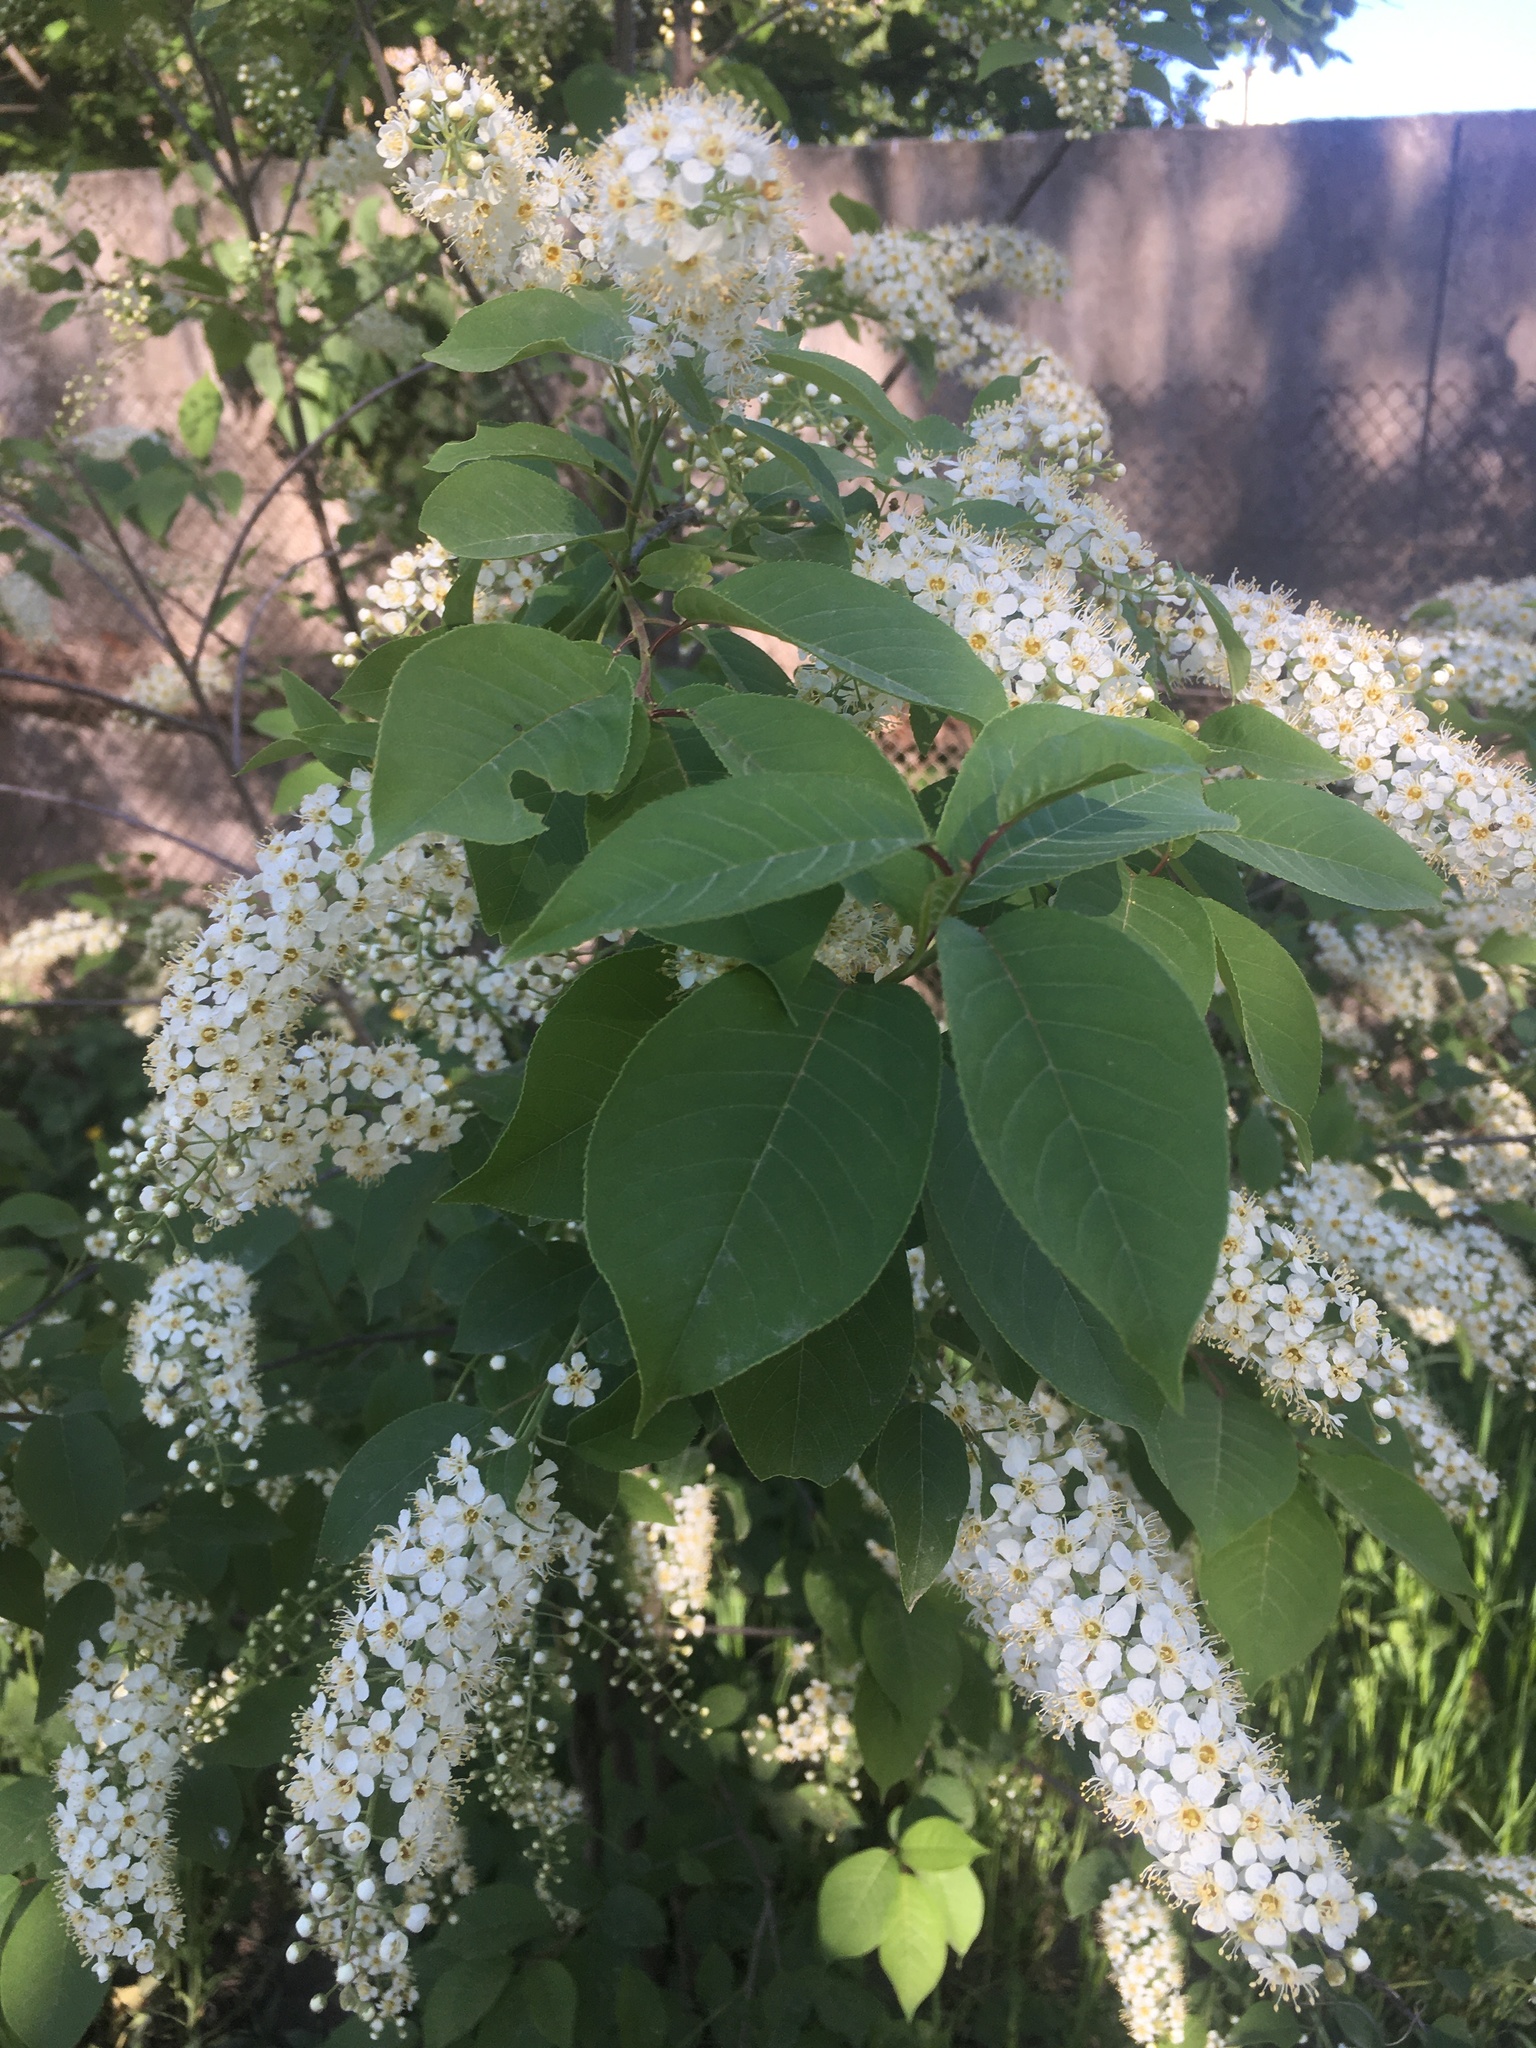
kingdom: Plantae
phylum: Tracheophyta
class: Magnoliopsida
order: Rosales
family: Rosaceae
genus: Prunus
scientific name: Prunus padus
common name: Bird cherry
